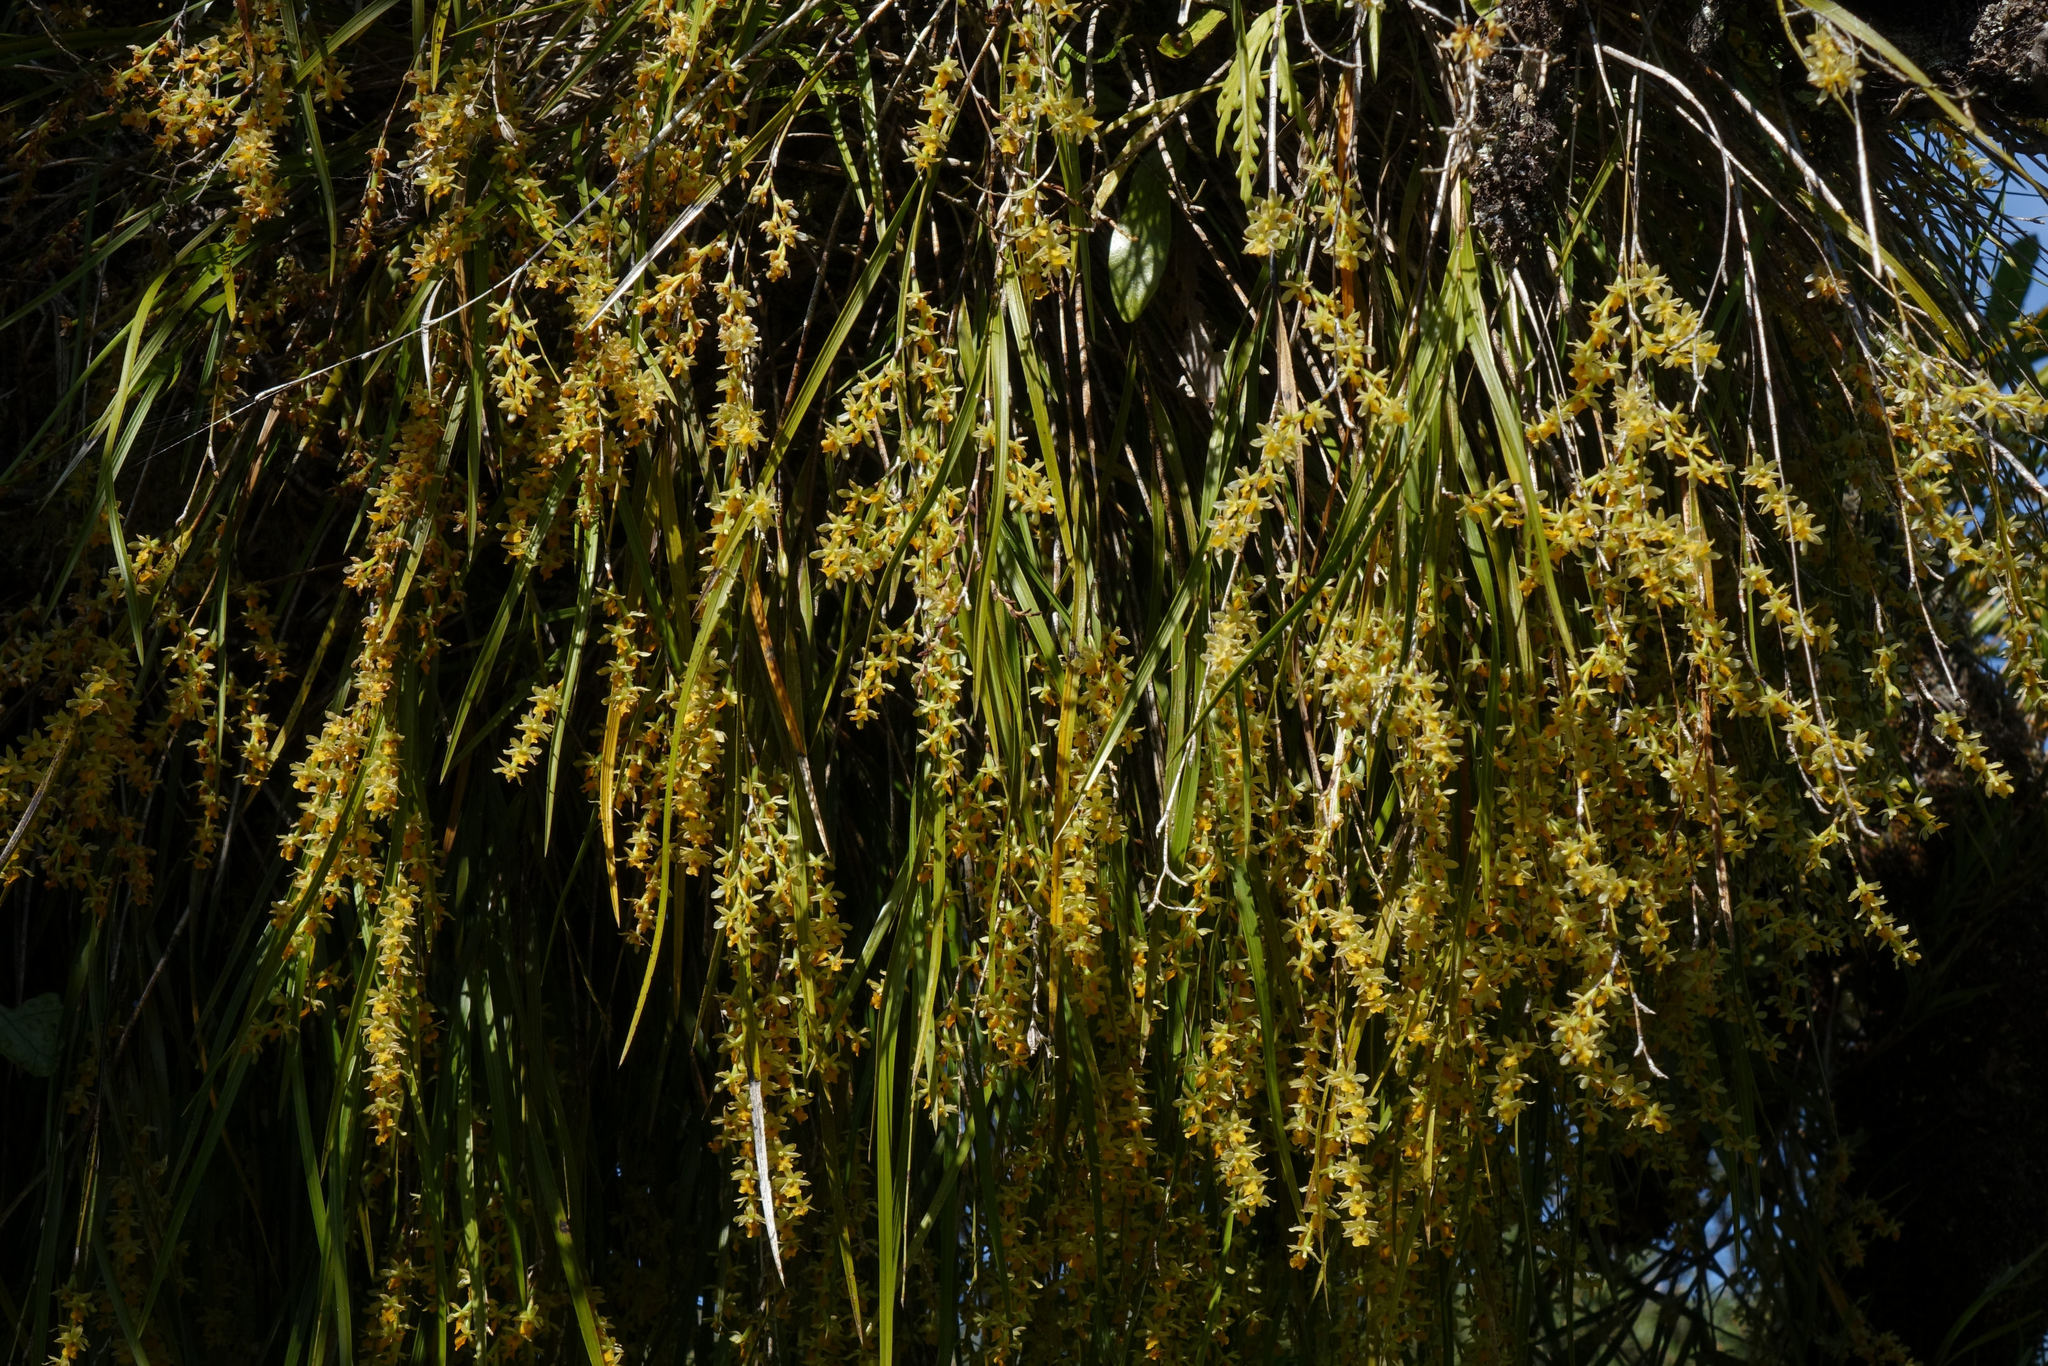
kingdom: Plantae
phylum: Tracheophyta
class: Liliopsida
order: Asparagales
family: Orchidaceae
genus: Earina
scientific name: Earina mucronata
